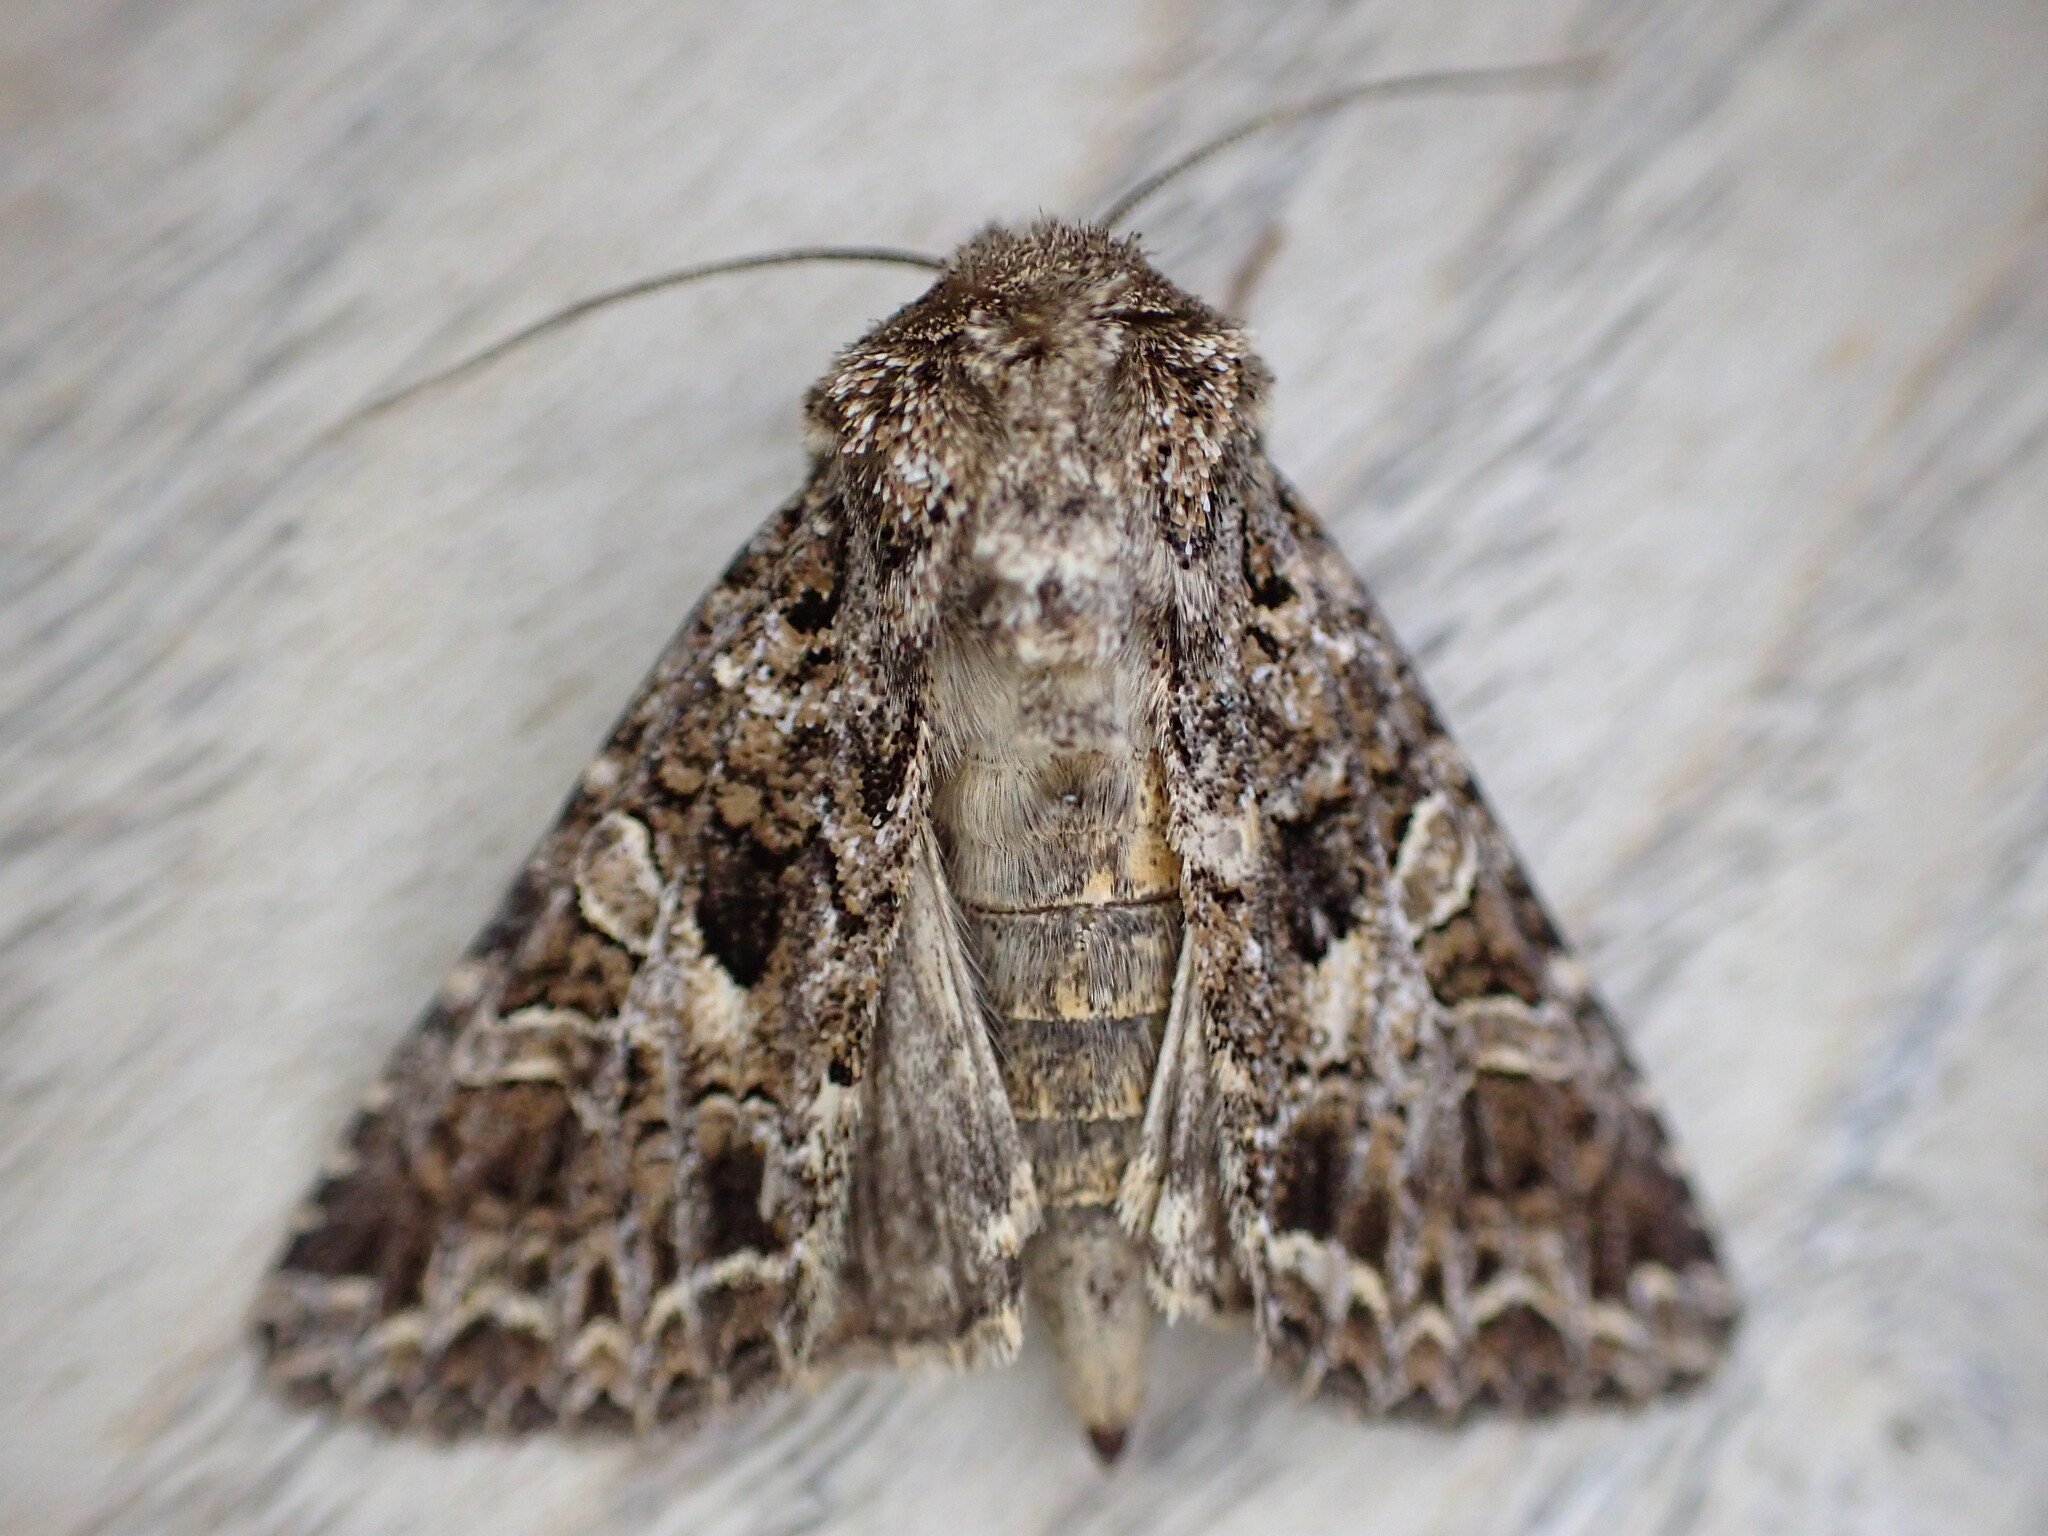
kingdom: Animalia
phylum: Arthropoda
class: Insecta
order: Lepidoptera
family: Noctuidae
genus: Hadena
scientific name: Hadena bicruris
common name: Lychnis
